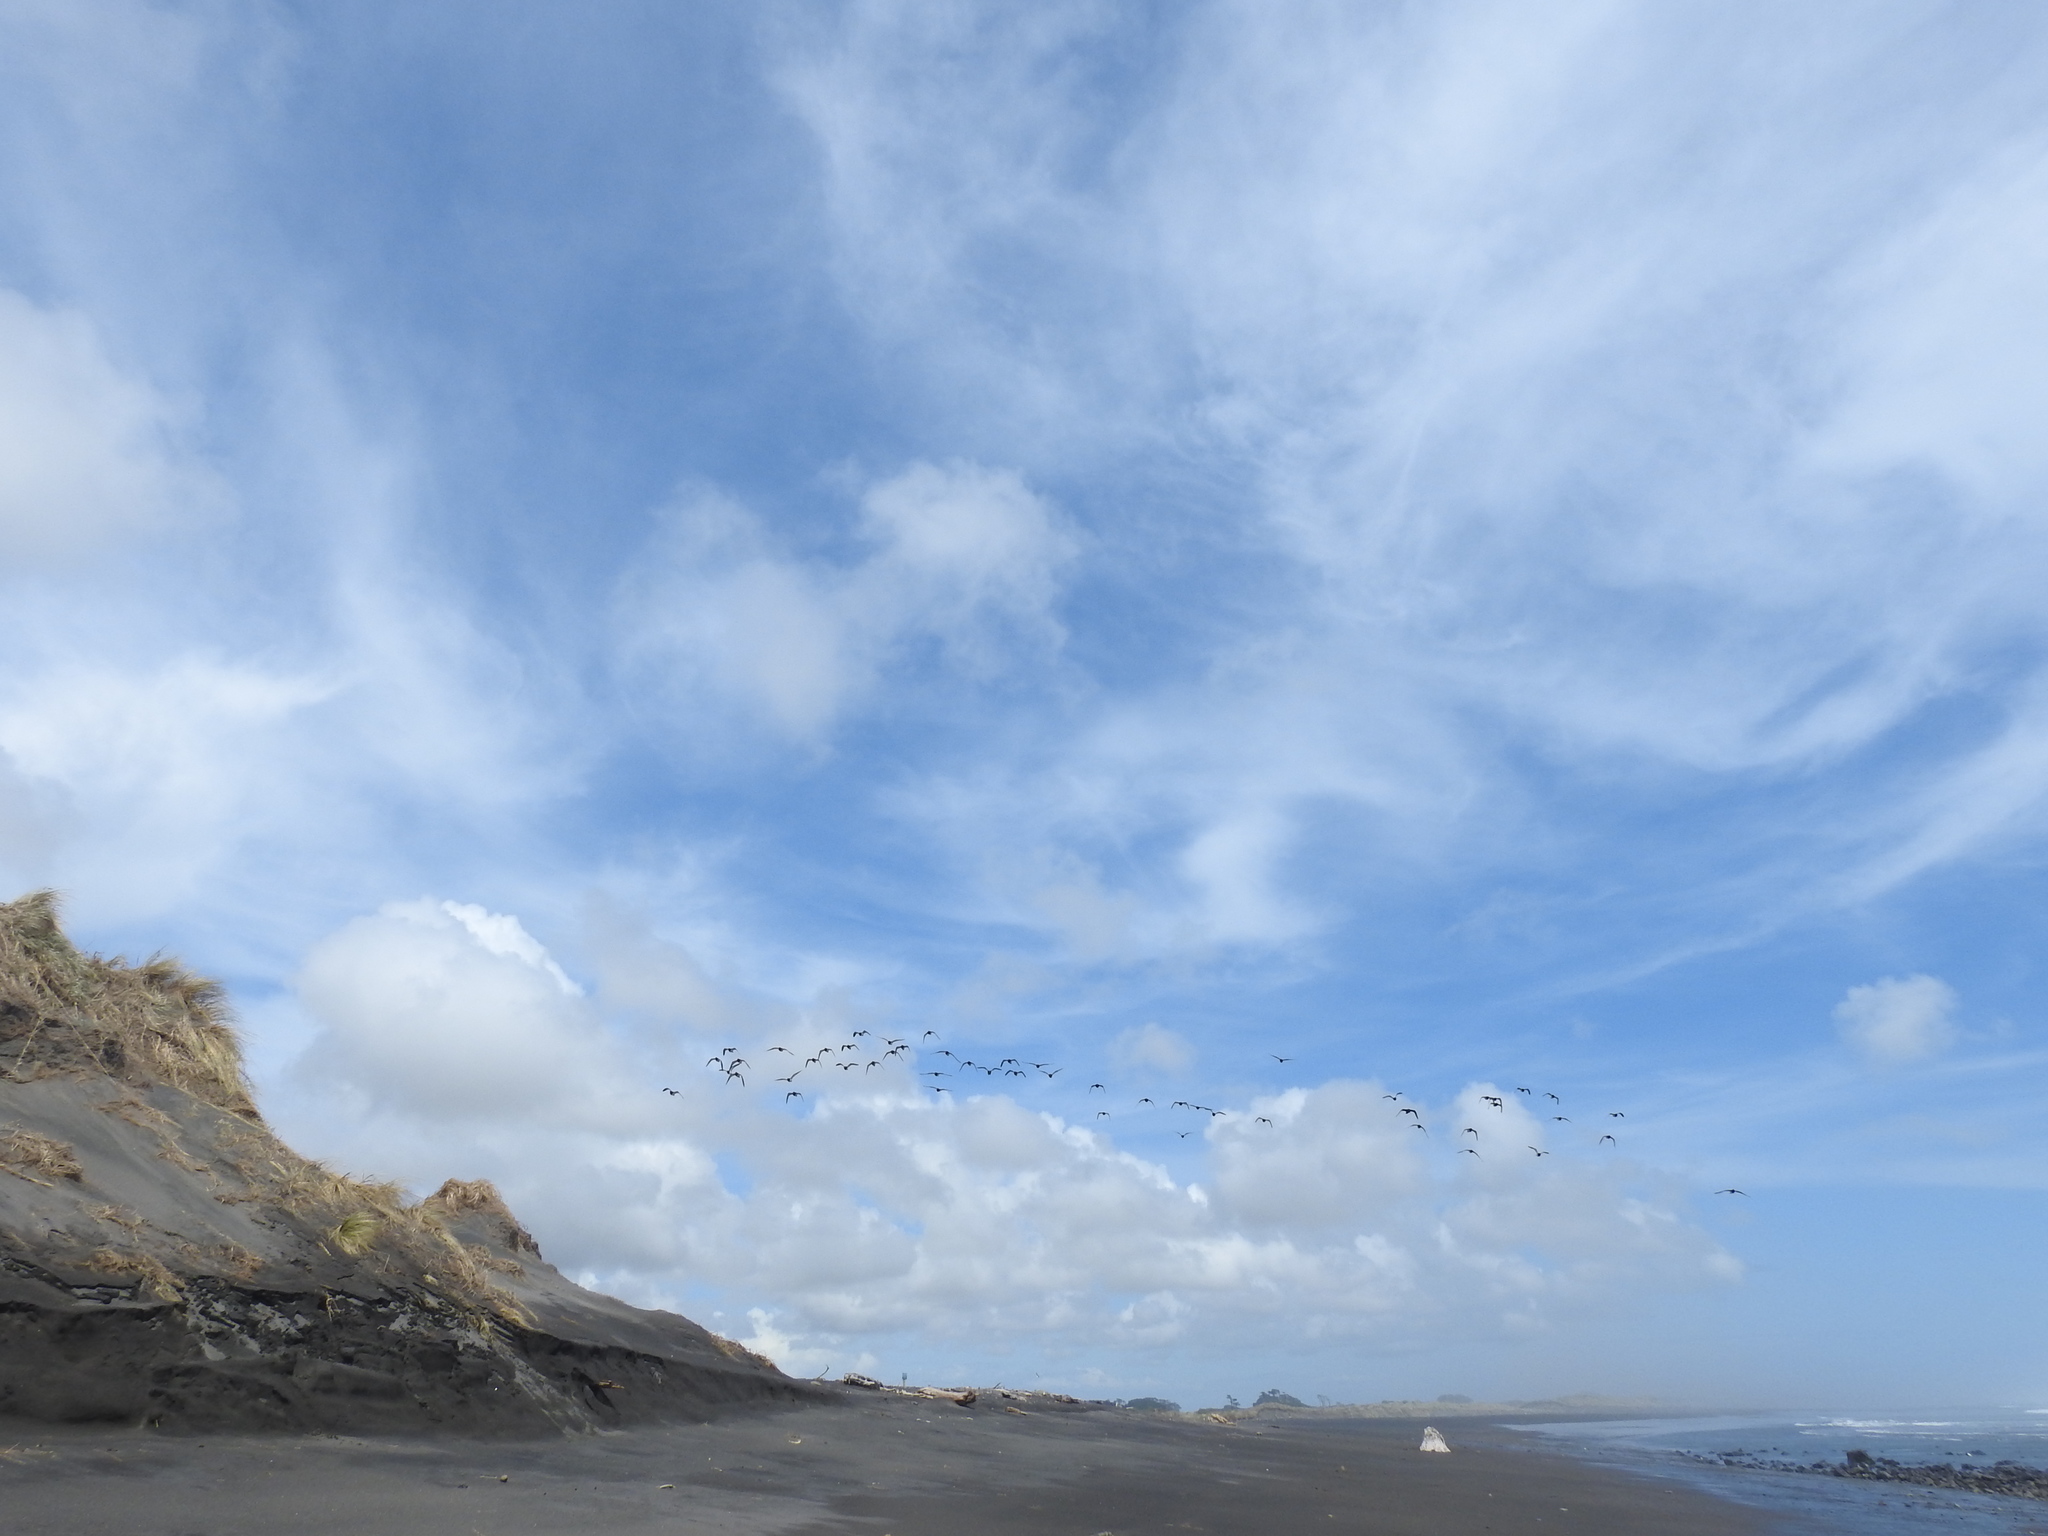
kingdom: Animalia
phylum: Chordata
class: Aves
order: Charadriiformes
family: Haematopodidae
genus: Haematopus
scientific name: Haematopus finschi
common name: South island oystercatcher
